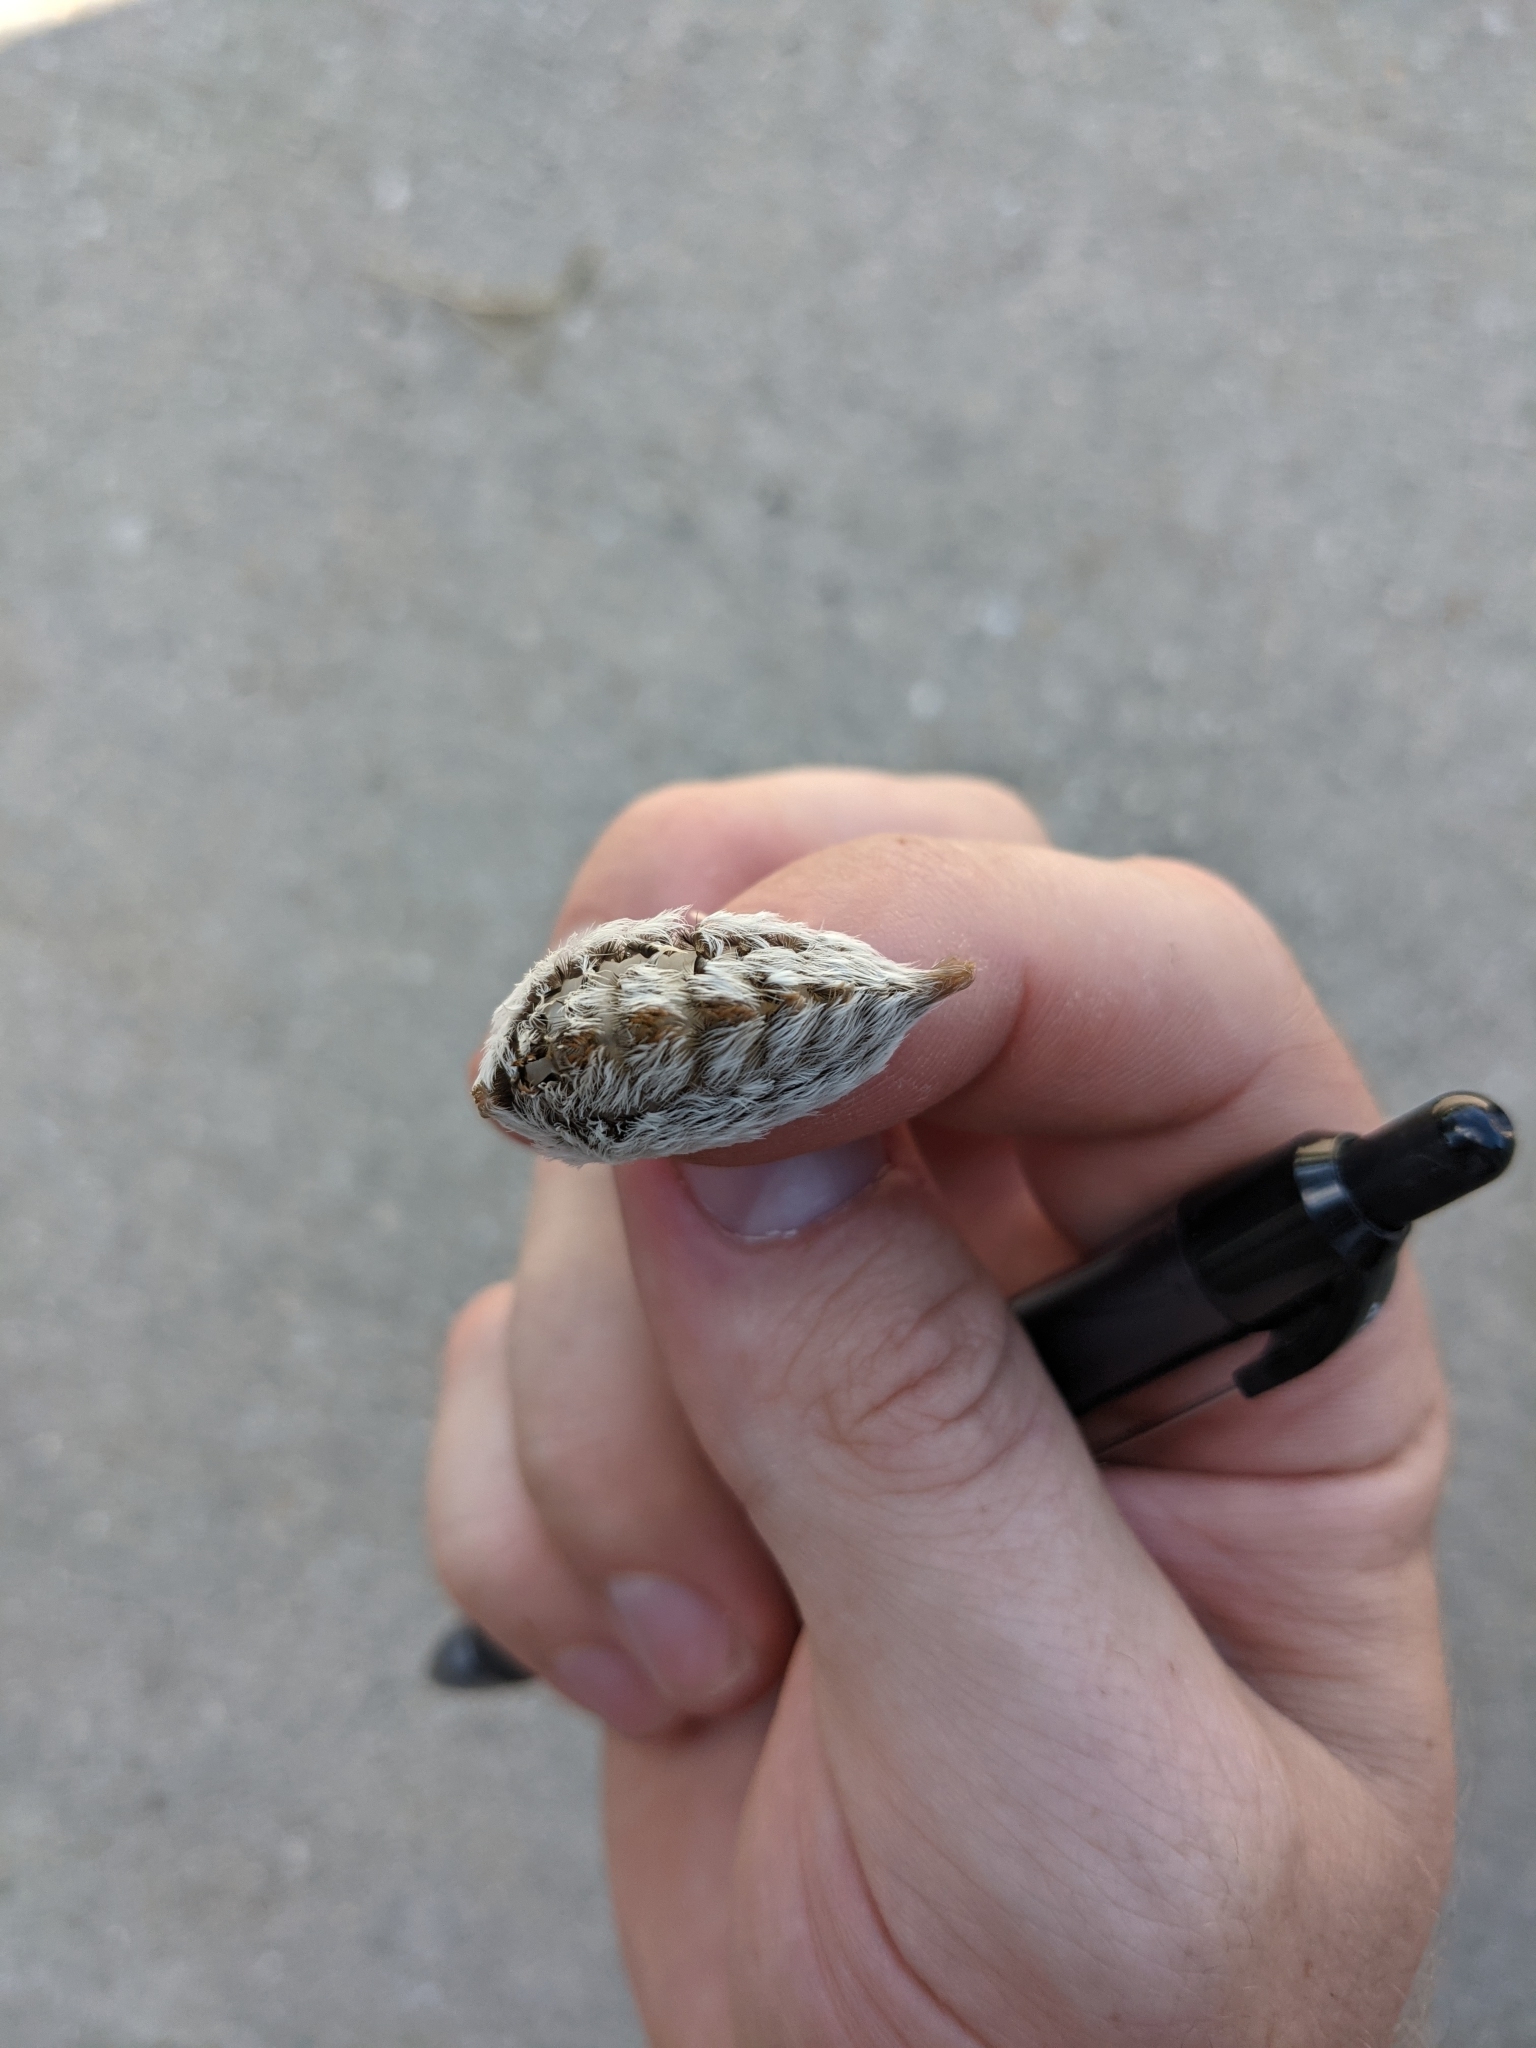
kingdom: Animalia
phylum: Arthropoda
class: Insecta
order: Lepidoptera
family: Megalopygidae
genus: Megalopyge
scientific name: Megalopyge opercularis
